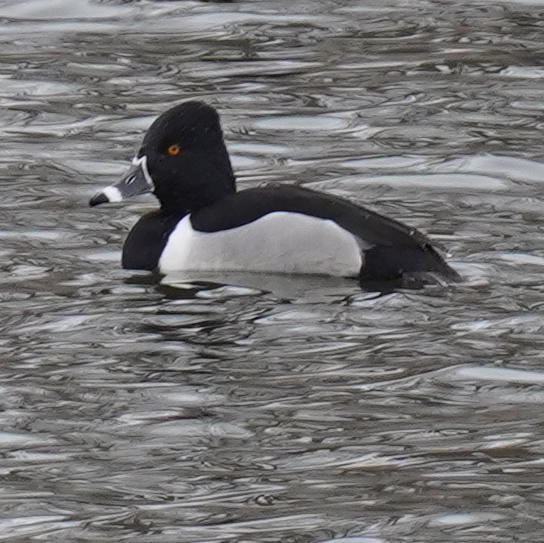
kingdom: Animalia
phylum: Chordata
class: Aves
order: Anseriformes
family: Anatidae
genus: Aythya
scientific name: Aythya collaris
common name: Ring-necked duck
